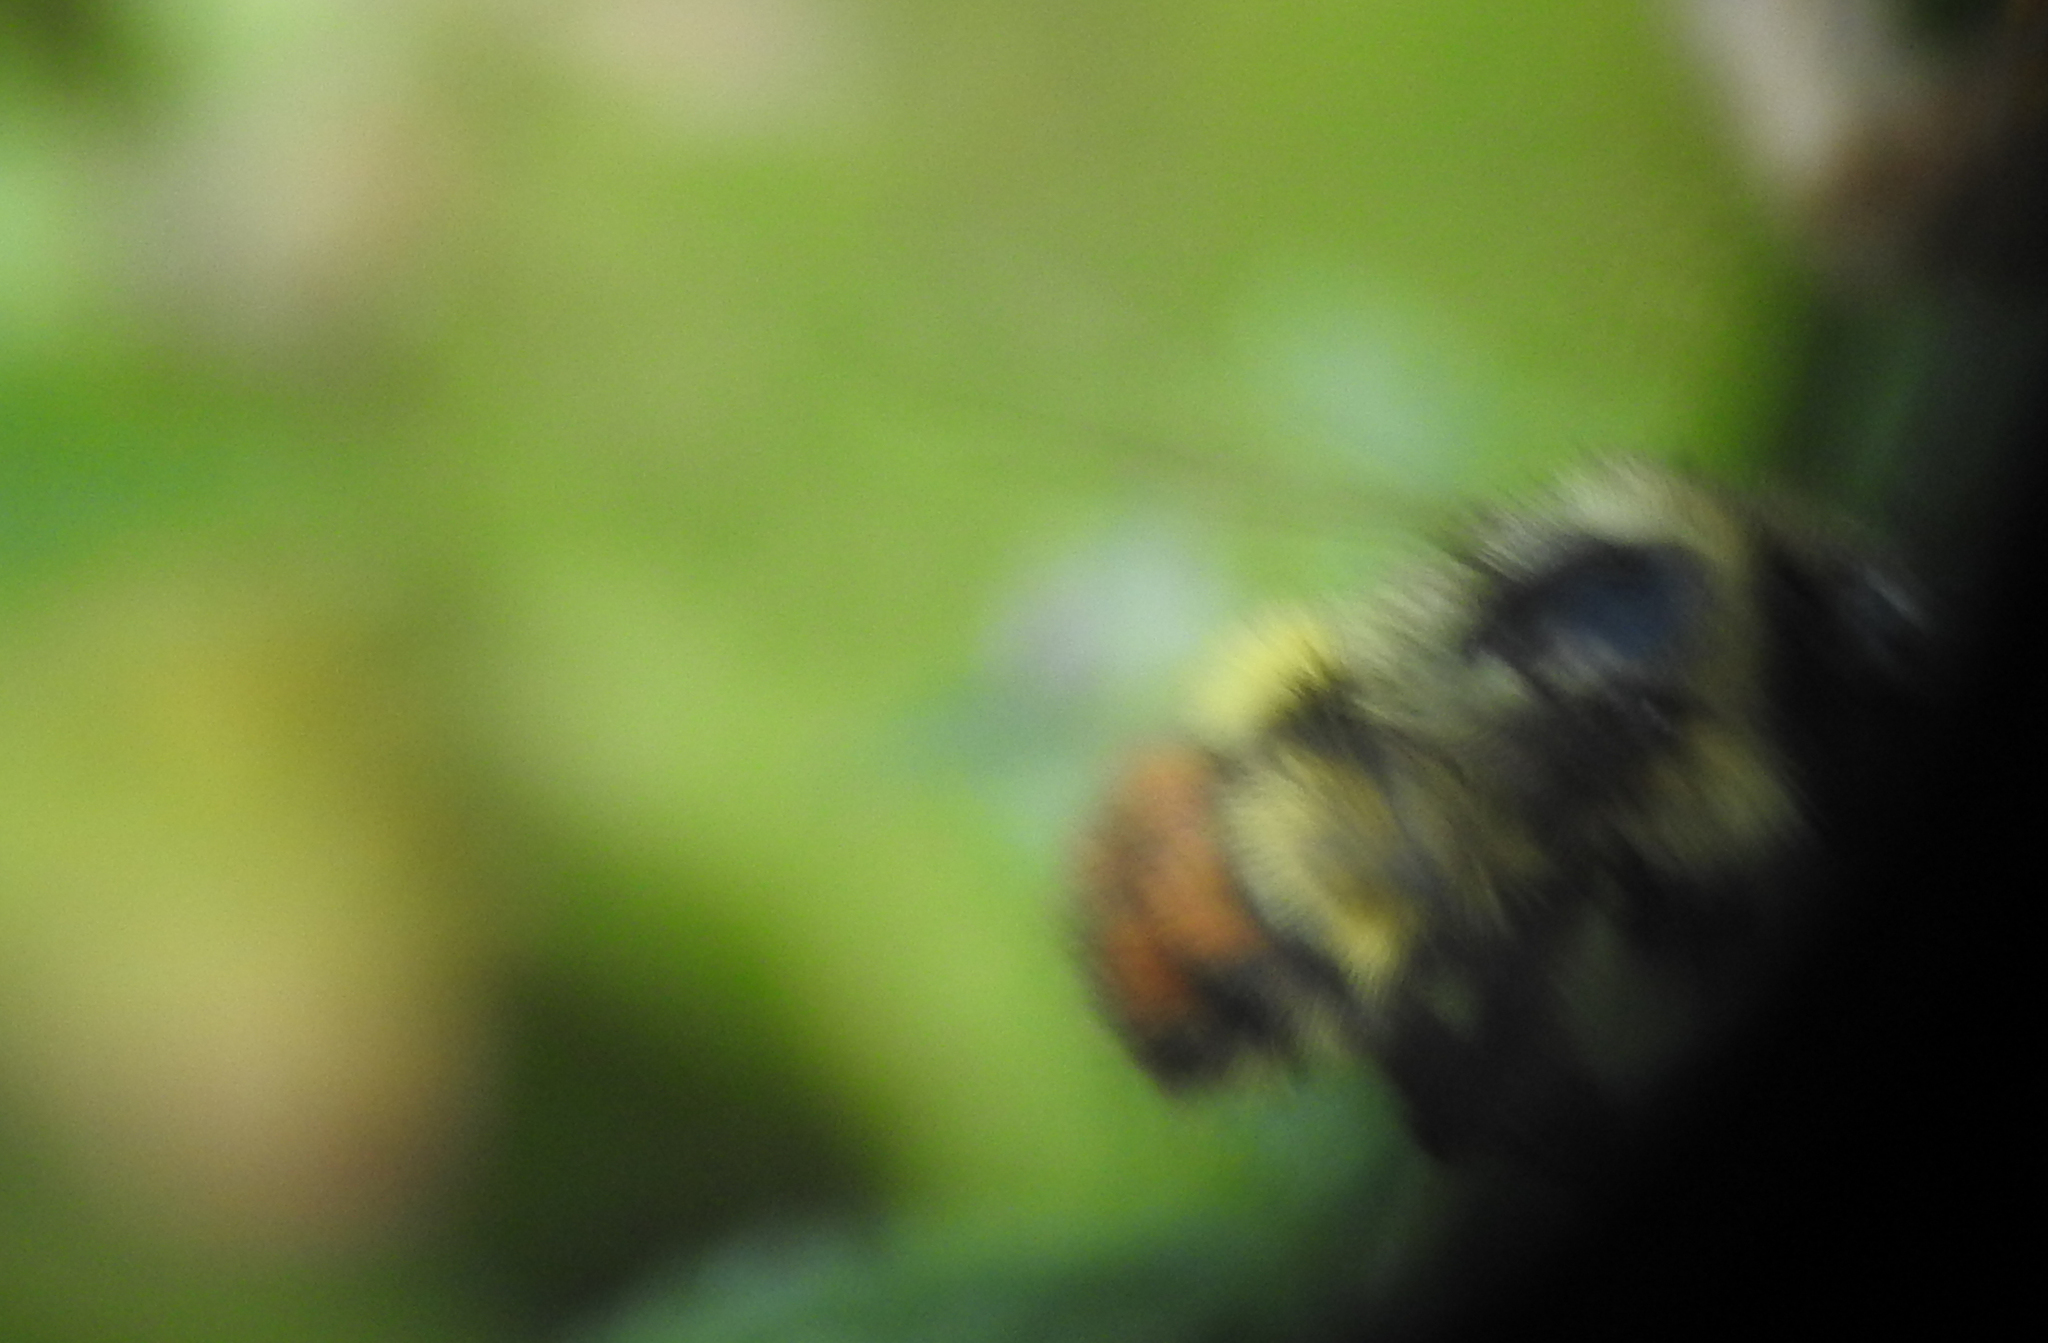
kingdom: Animalia
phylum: Arthropoda
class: Insecta
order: Hymenoptera
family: Apidae
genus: Bombus
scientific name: Bombus flavifrons
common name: Yellow head bumble bee
